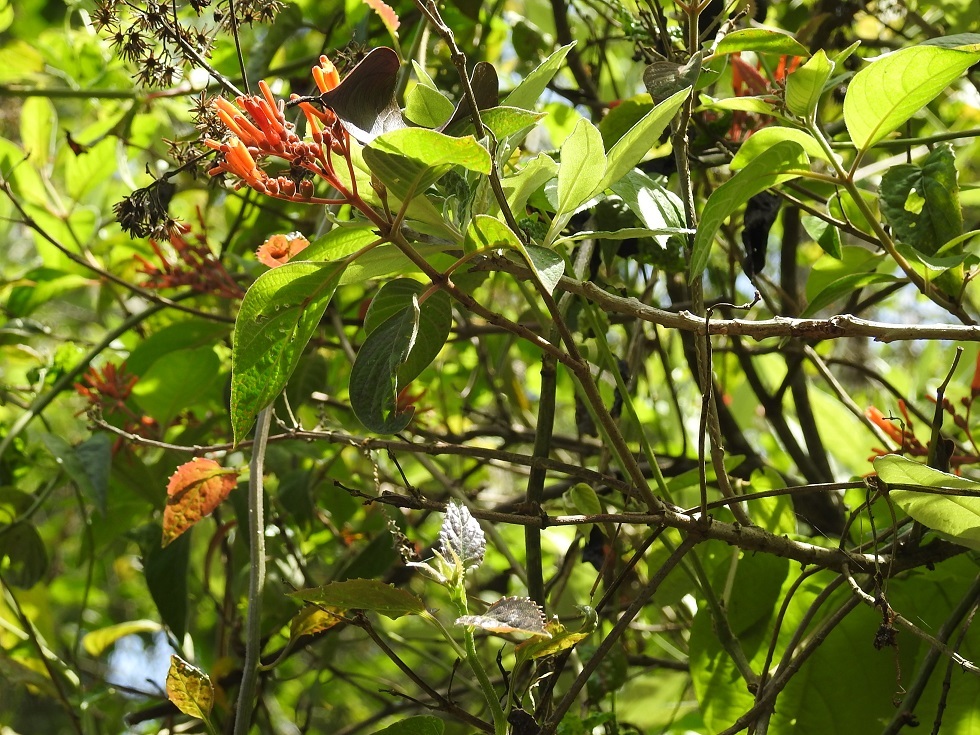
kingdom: Plantae
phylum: Tracheophyta
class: Magnoliopsida
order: Gentianales
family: Rubiaceae
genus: Hamelia
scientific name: Hamelia patens
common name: Redhead
